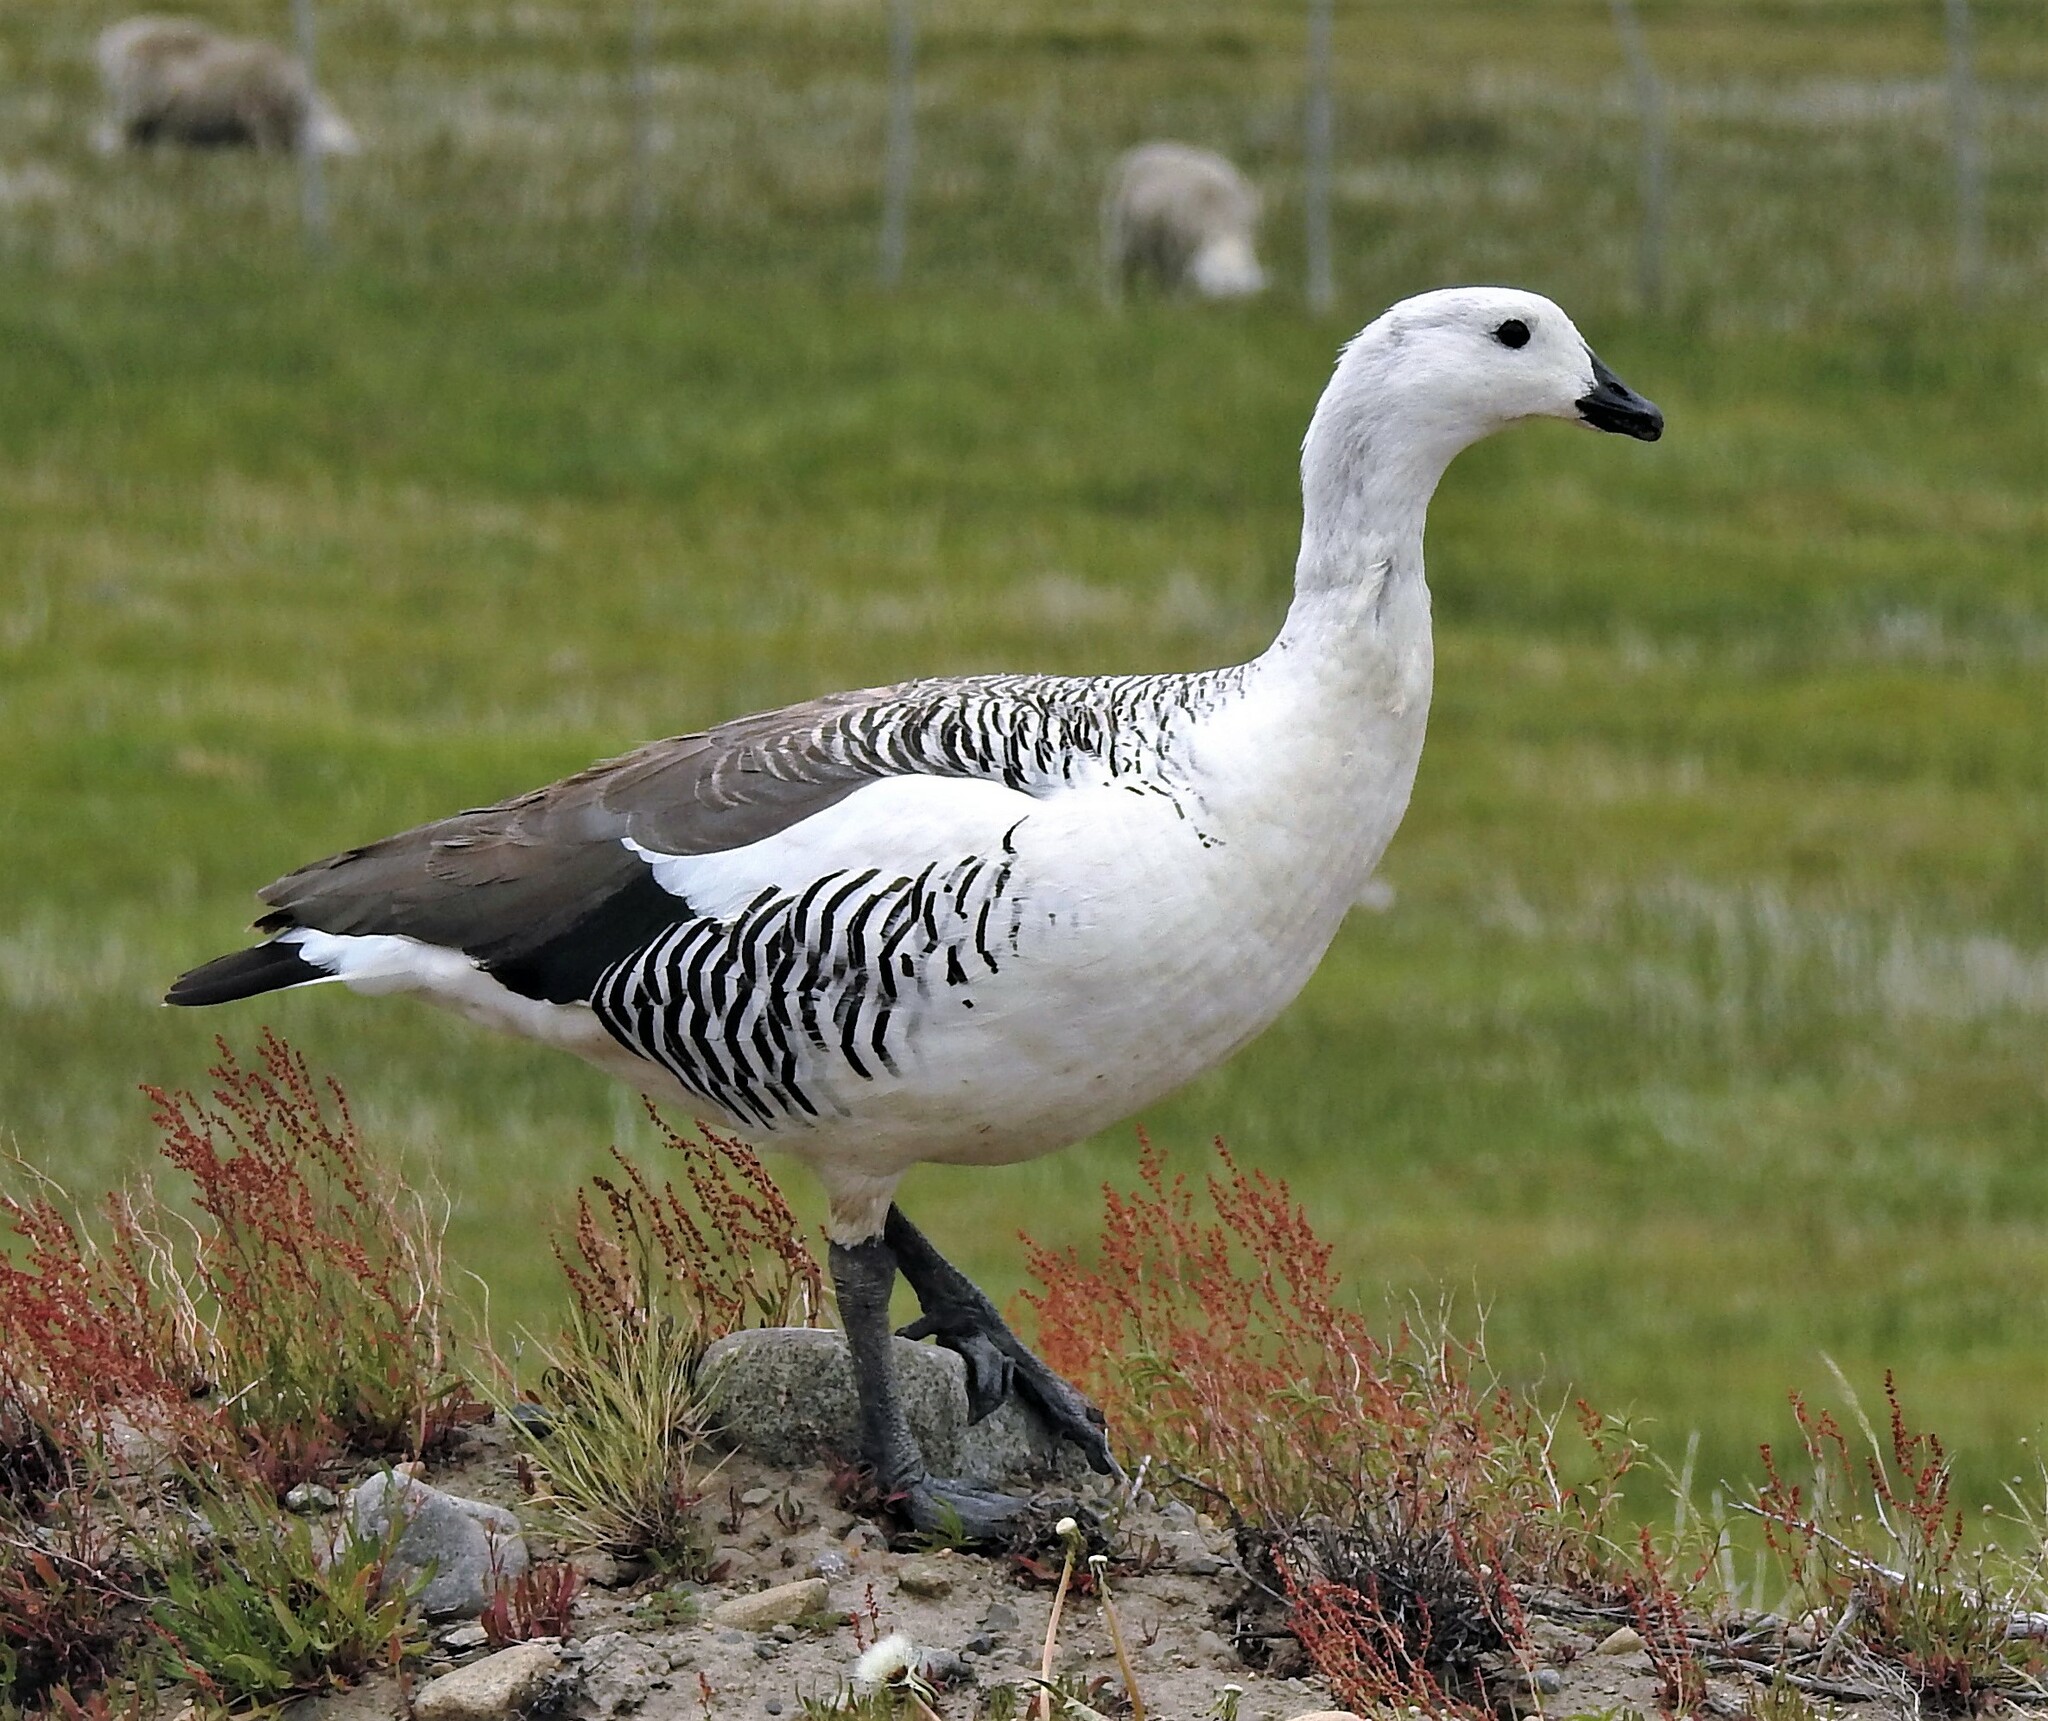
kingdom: Animalia
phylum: Chordata
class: Aves
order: Anseriformes
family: Anatidae
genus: Chloephaga
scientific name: Chloephaga picta
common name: Upland goose
